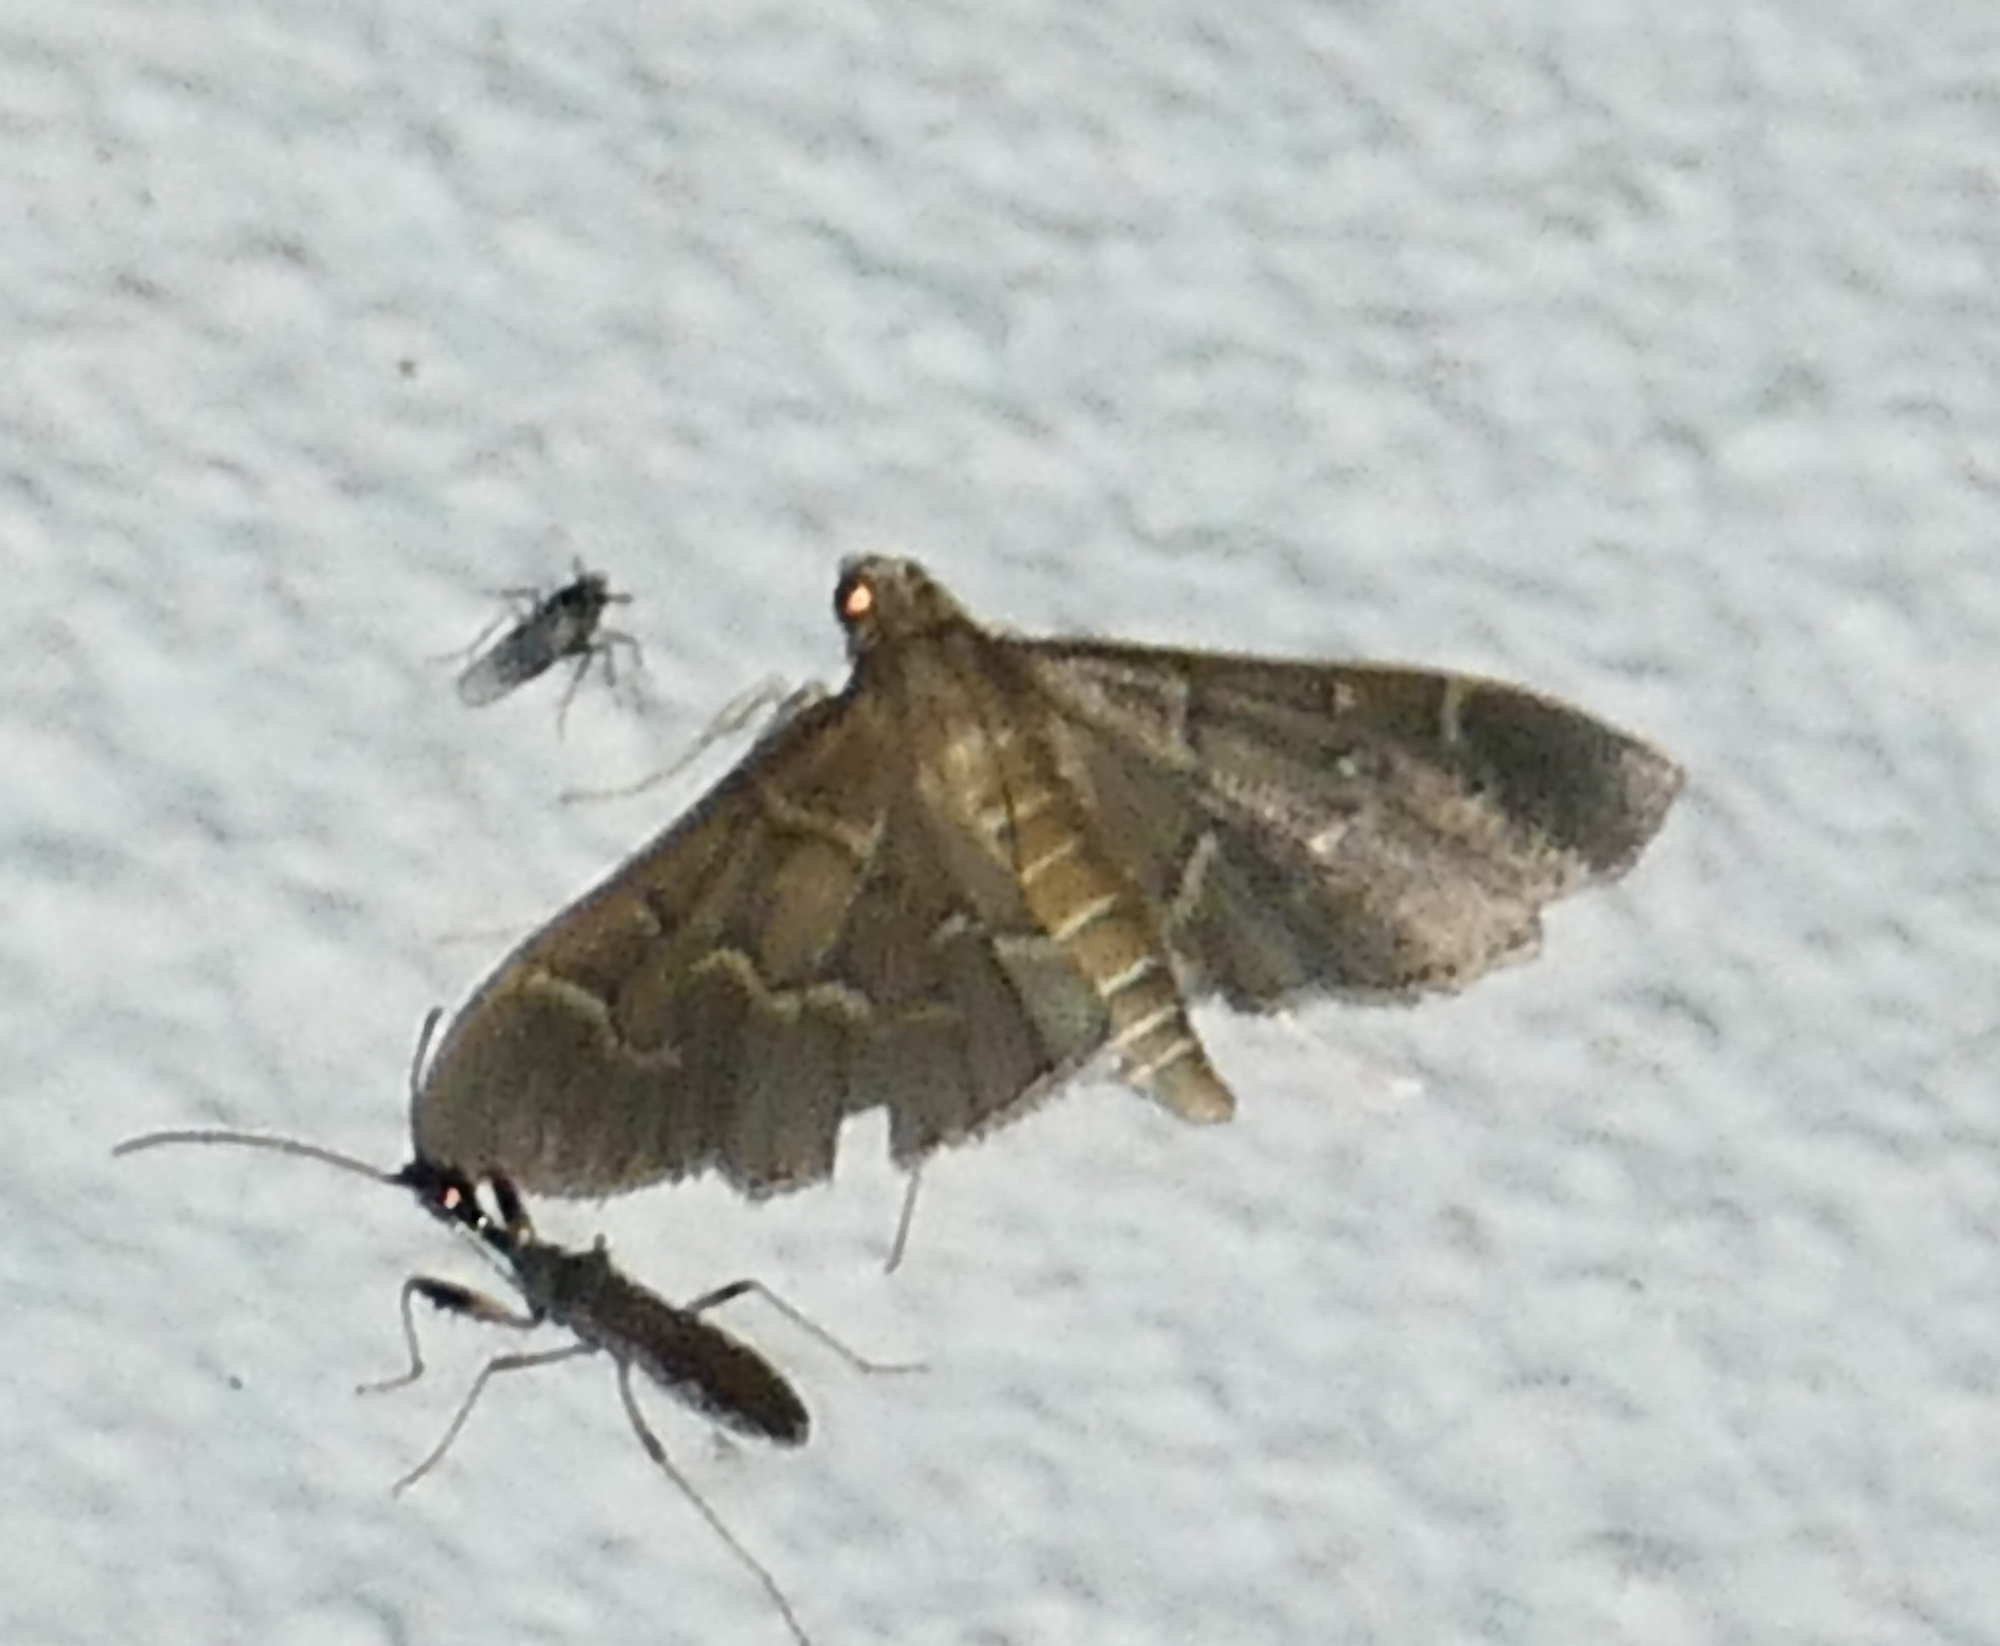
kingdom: Animalia
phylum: Arthropoda
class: Insecta
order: Lepidoptera
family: Crambidae
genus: Pilocrocis
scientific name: Pilocrocis ramentalis
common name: Scraped pilocrocis
